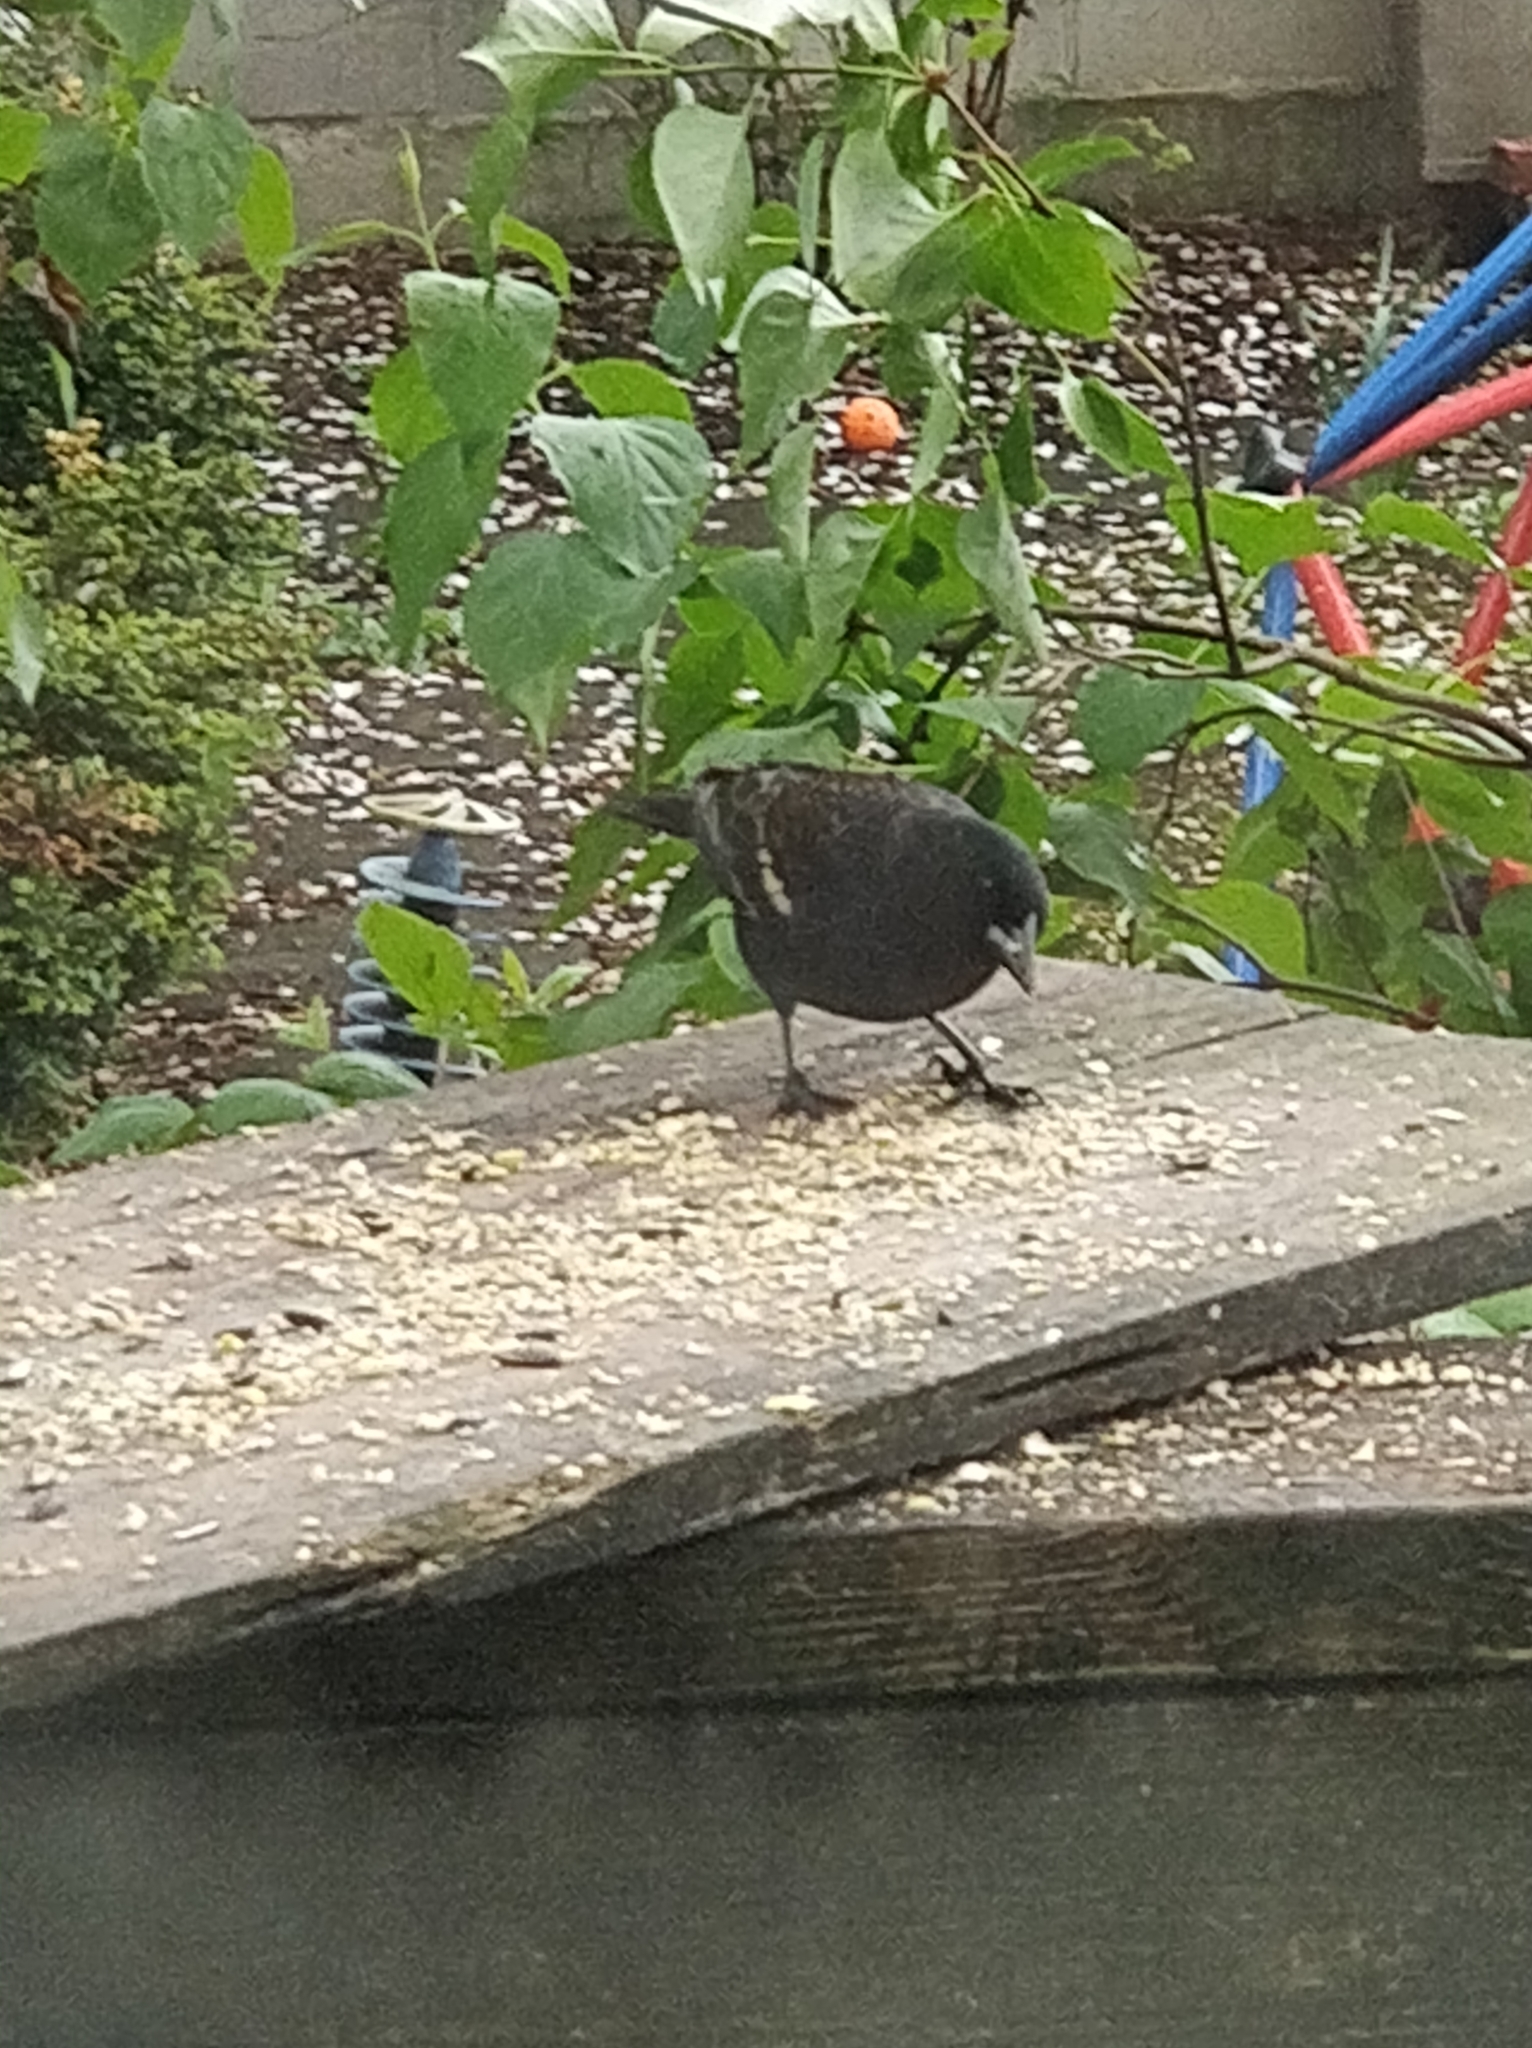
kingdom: Animalia
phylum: Chordata
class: Aves
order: Passeriformes
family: Icteridae
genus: Agelaius
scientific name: Agelaius phoeniceus
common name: Red-winged blackbird
